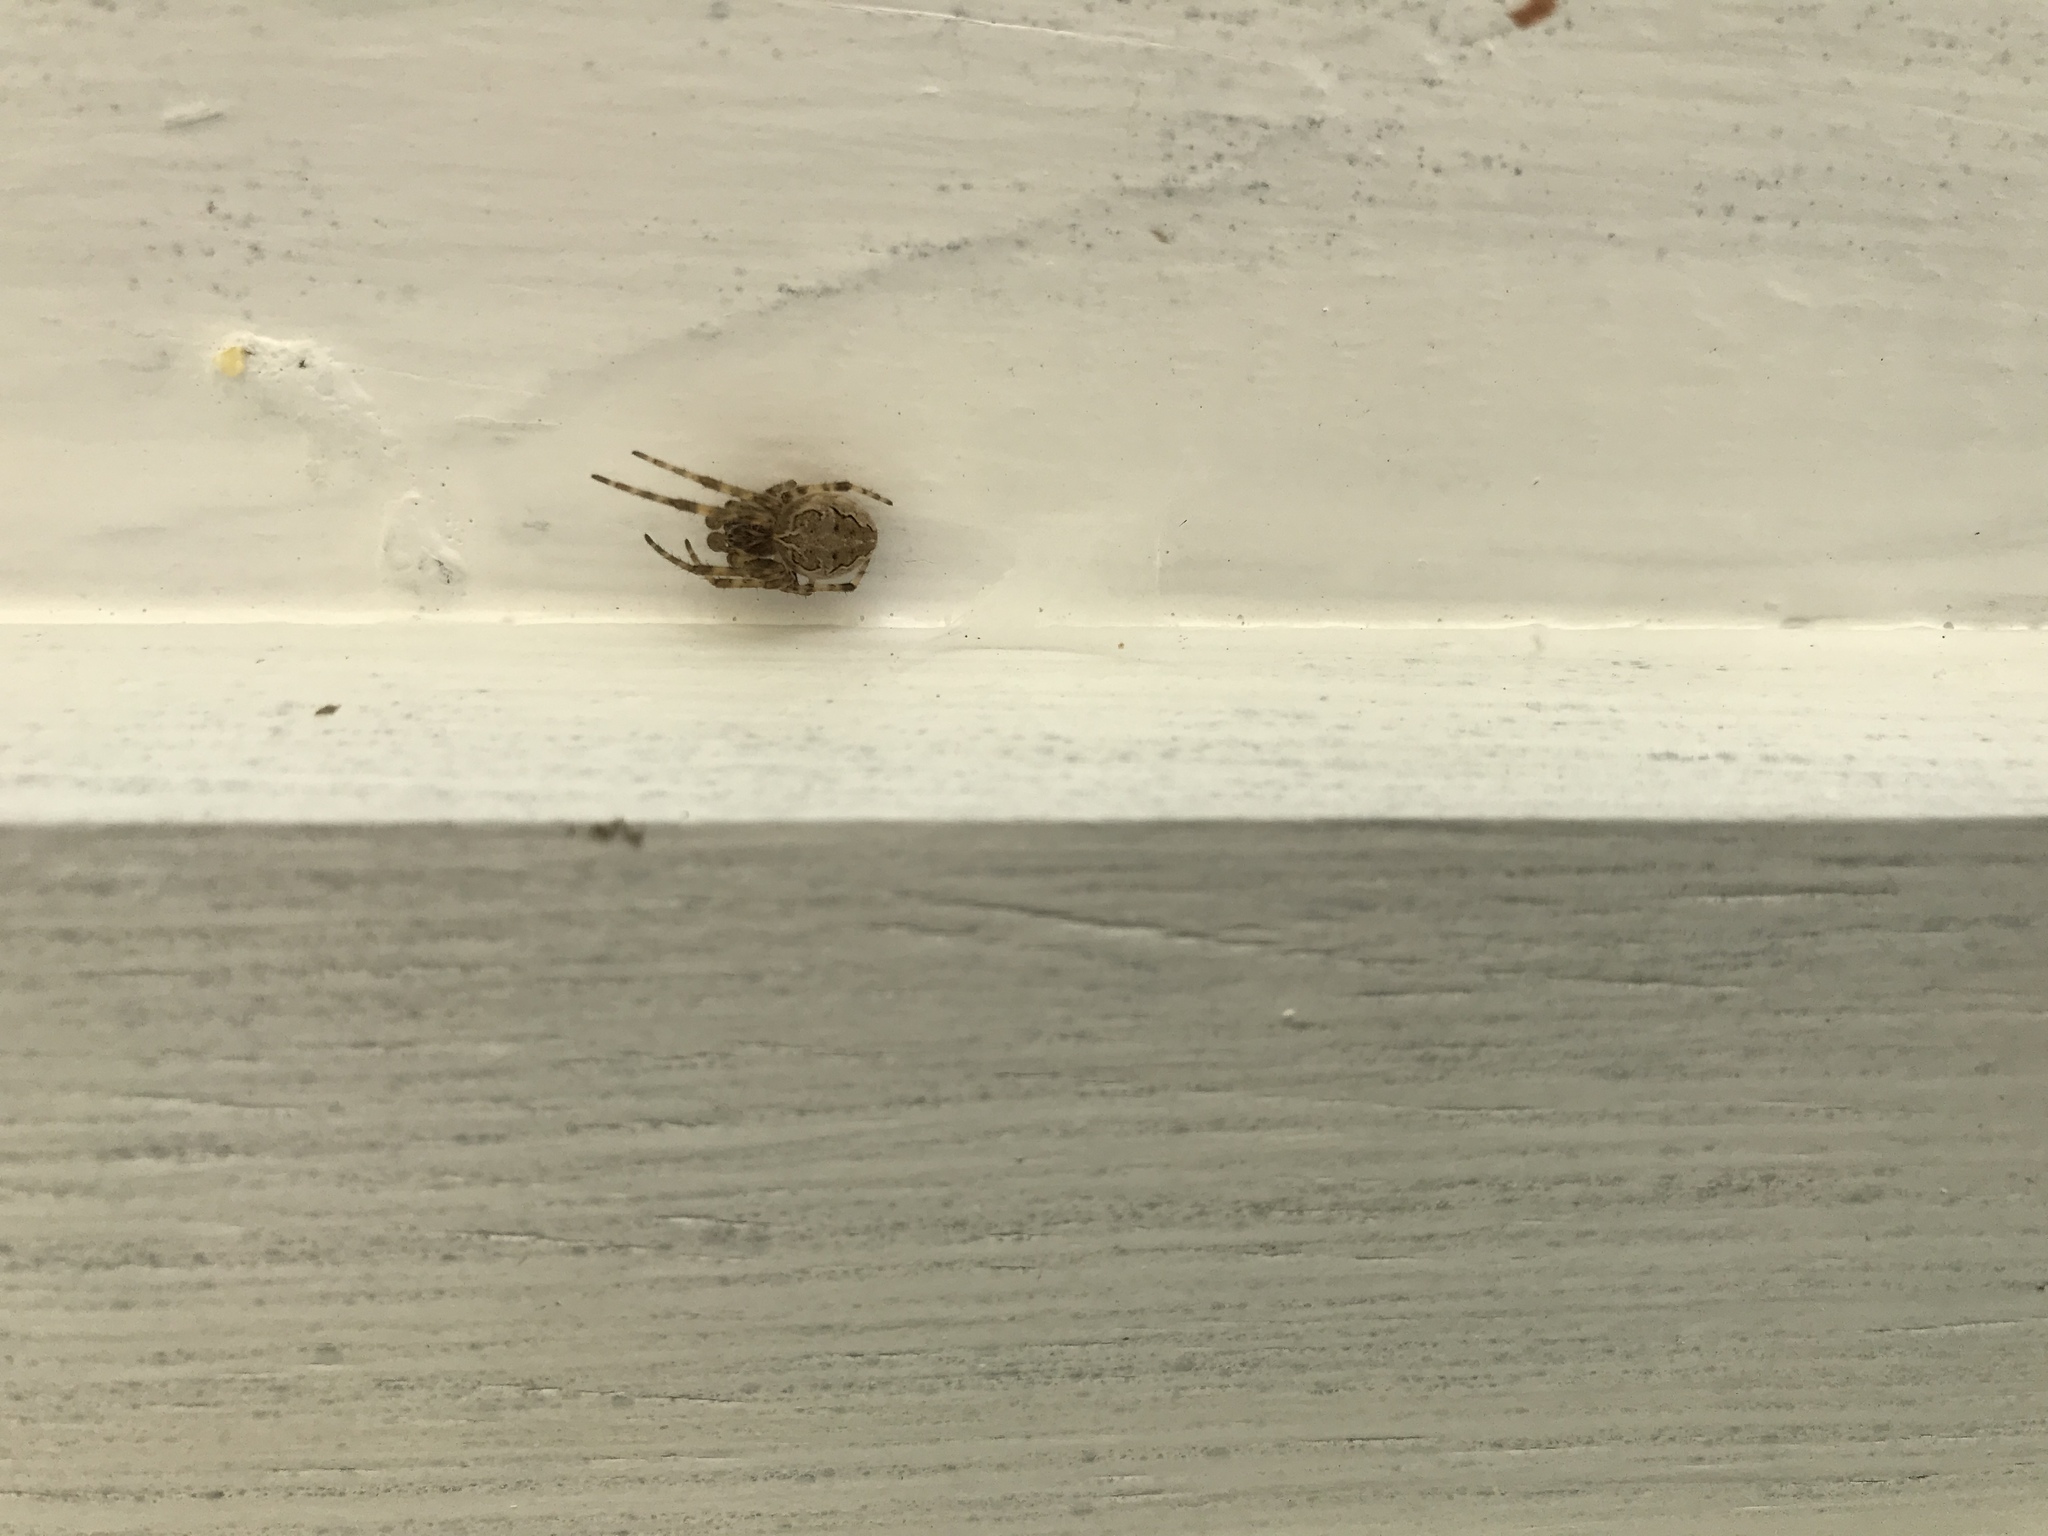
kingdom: Animalia
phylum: Arthropoda
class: Arachnida
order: Araneae
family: Araneidae
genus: Larinioides
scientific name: Larinioides sclopetarius
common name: Bridge orbweaver
